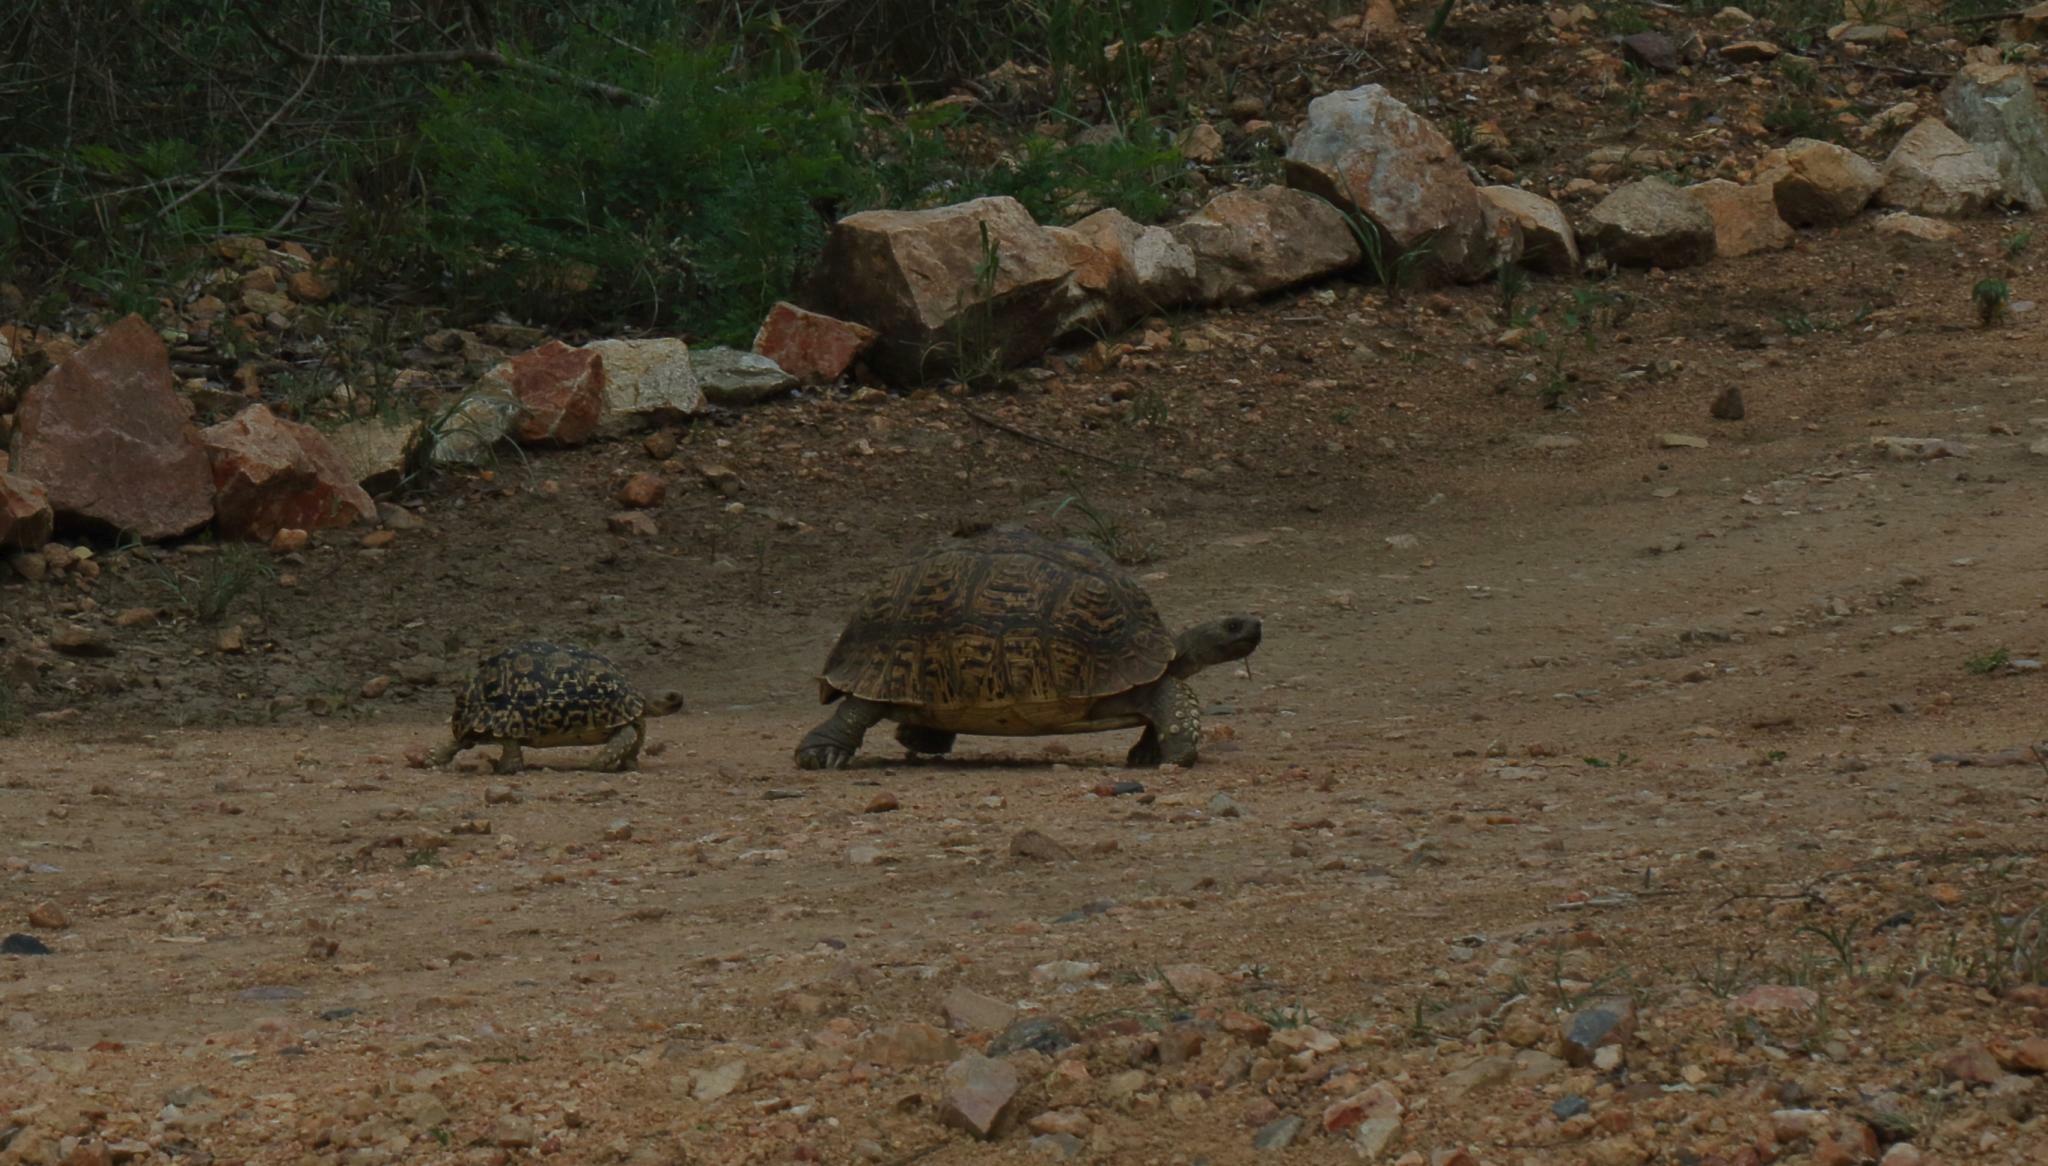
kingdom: Animalia
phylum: Chordata
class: Testudines
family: Testudinidae
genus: Stigmochelys
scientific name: Stigmochelys pardalis
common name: Leopard tortoise
